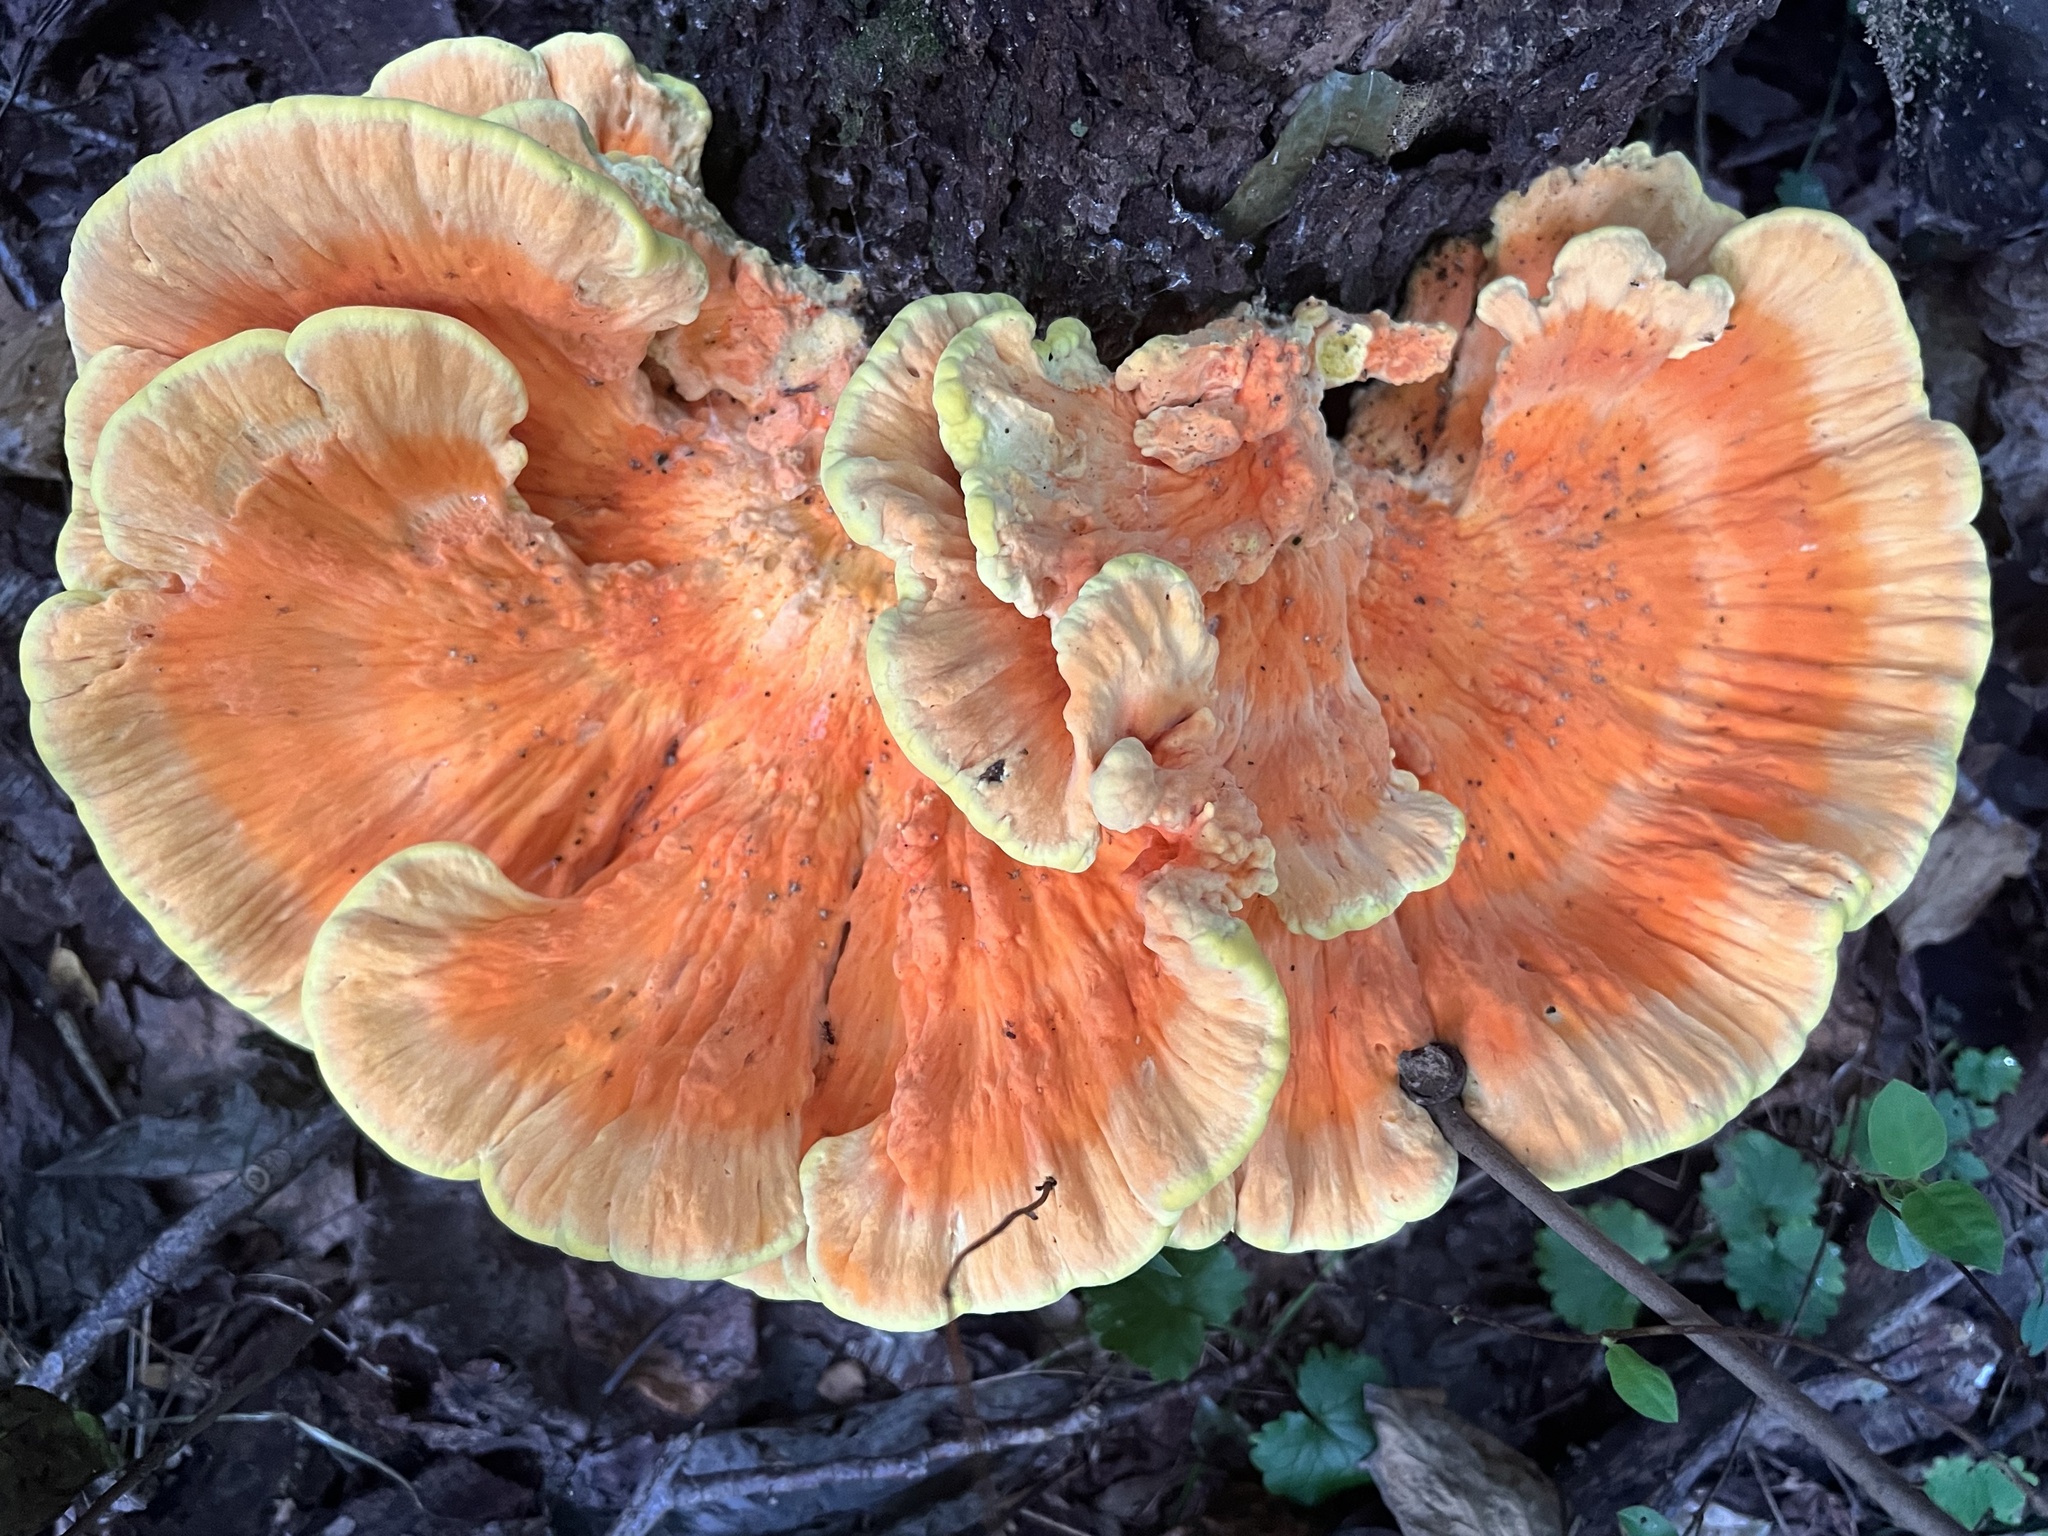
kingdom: Fungi
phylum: Basidiomycota
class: Agaricomycetes
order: Polyporales
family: Laetiporaceae
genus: Laetiporus
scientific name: Laetiporus sulphureus
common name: Chicken of the woods
